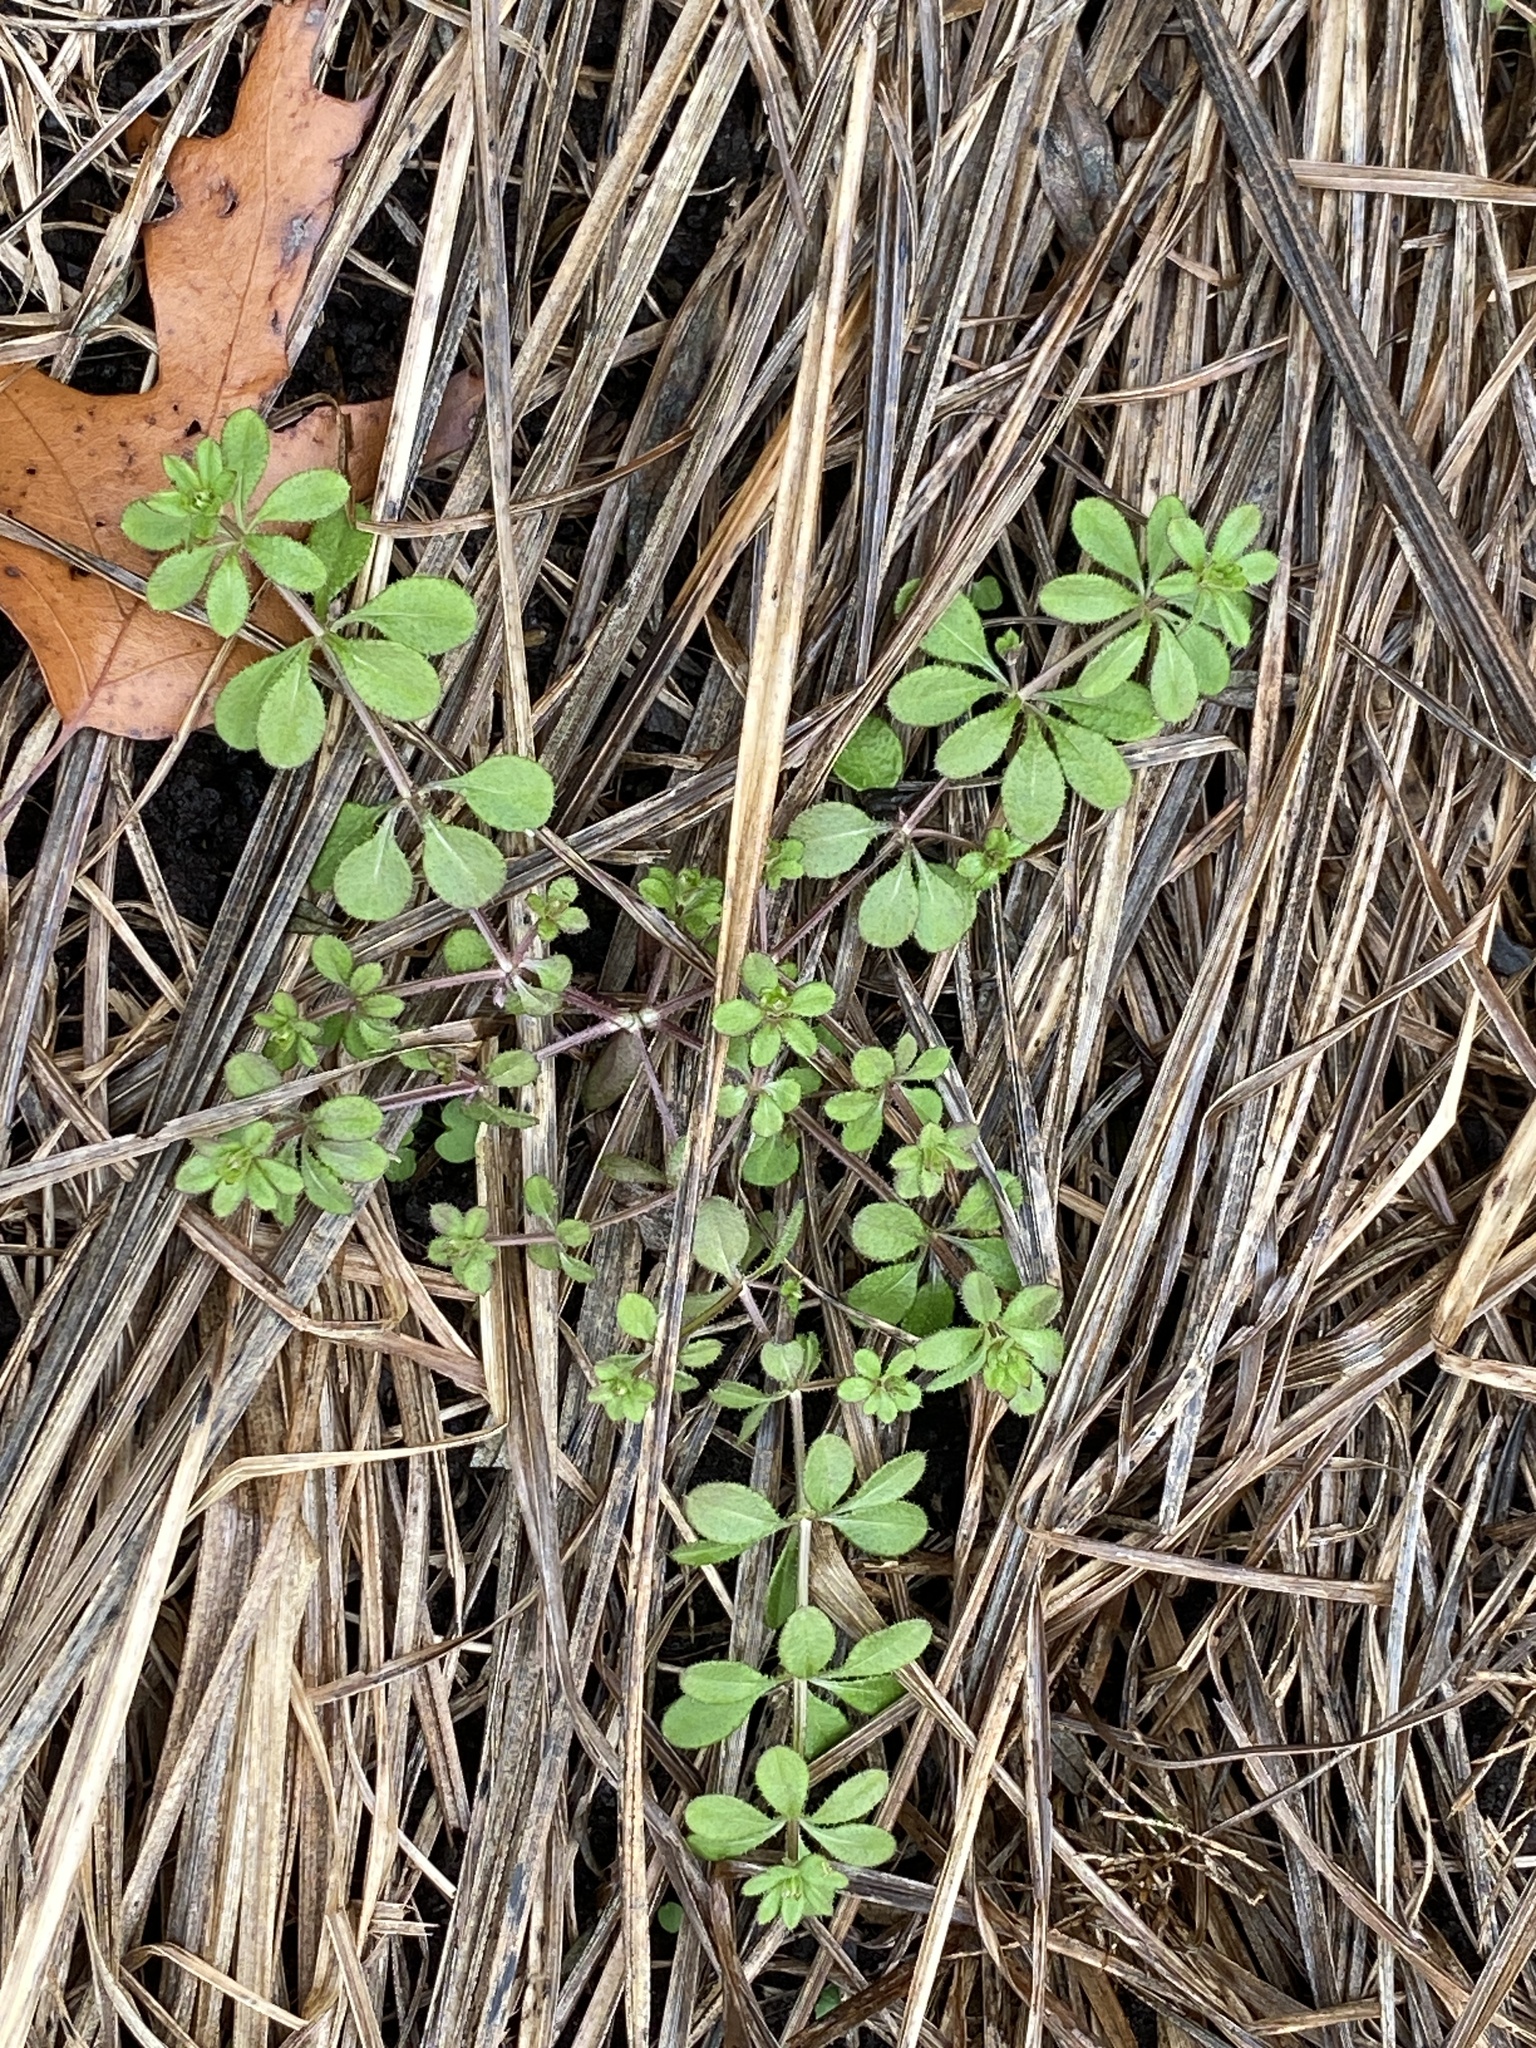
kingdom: Plantae
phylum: Tracheophyta
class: Magnoliopsida
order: Gentianales
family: Rubiaceae
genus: Galium
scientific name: Galium aparine
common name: Cleavers
